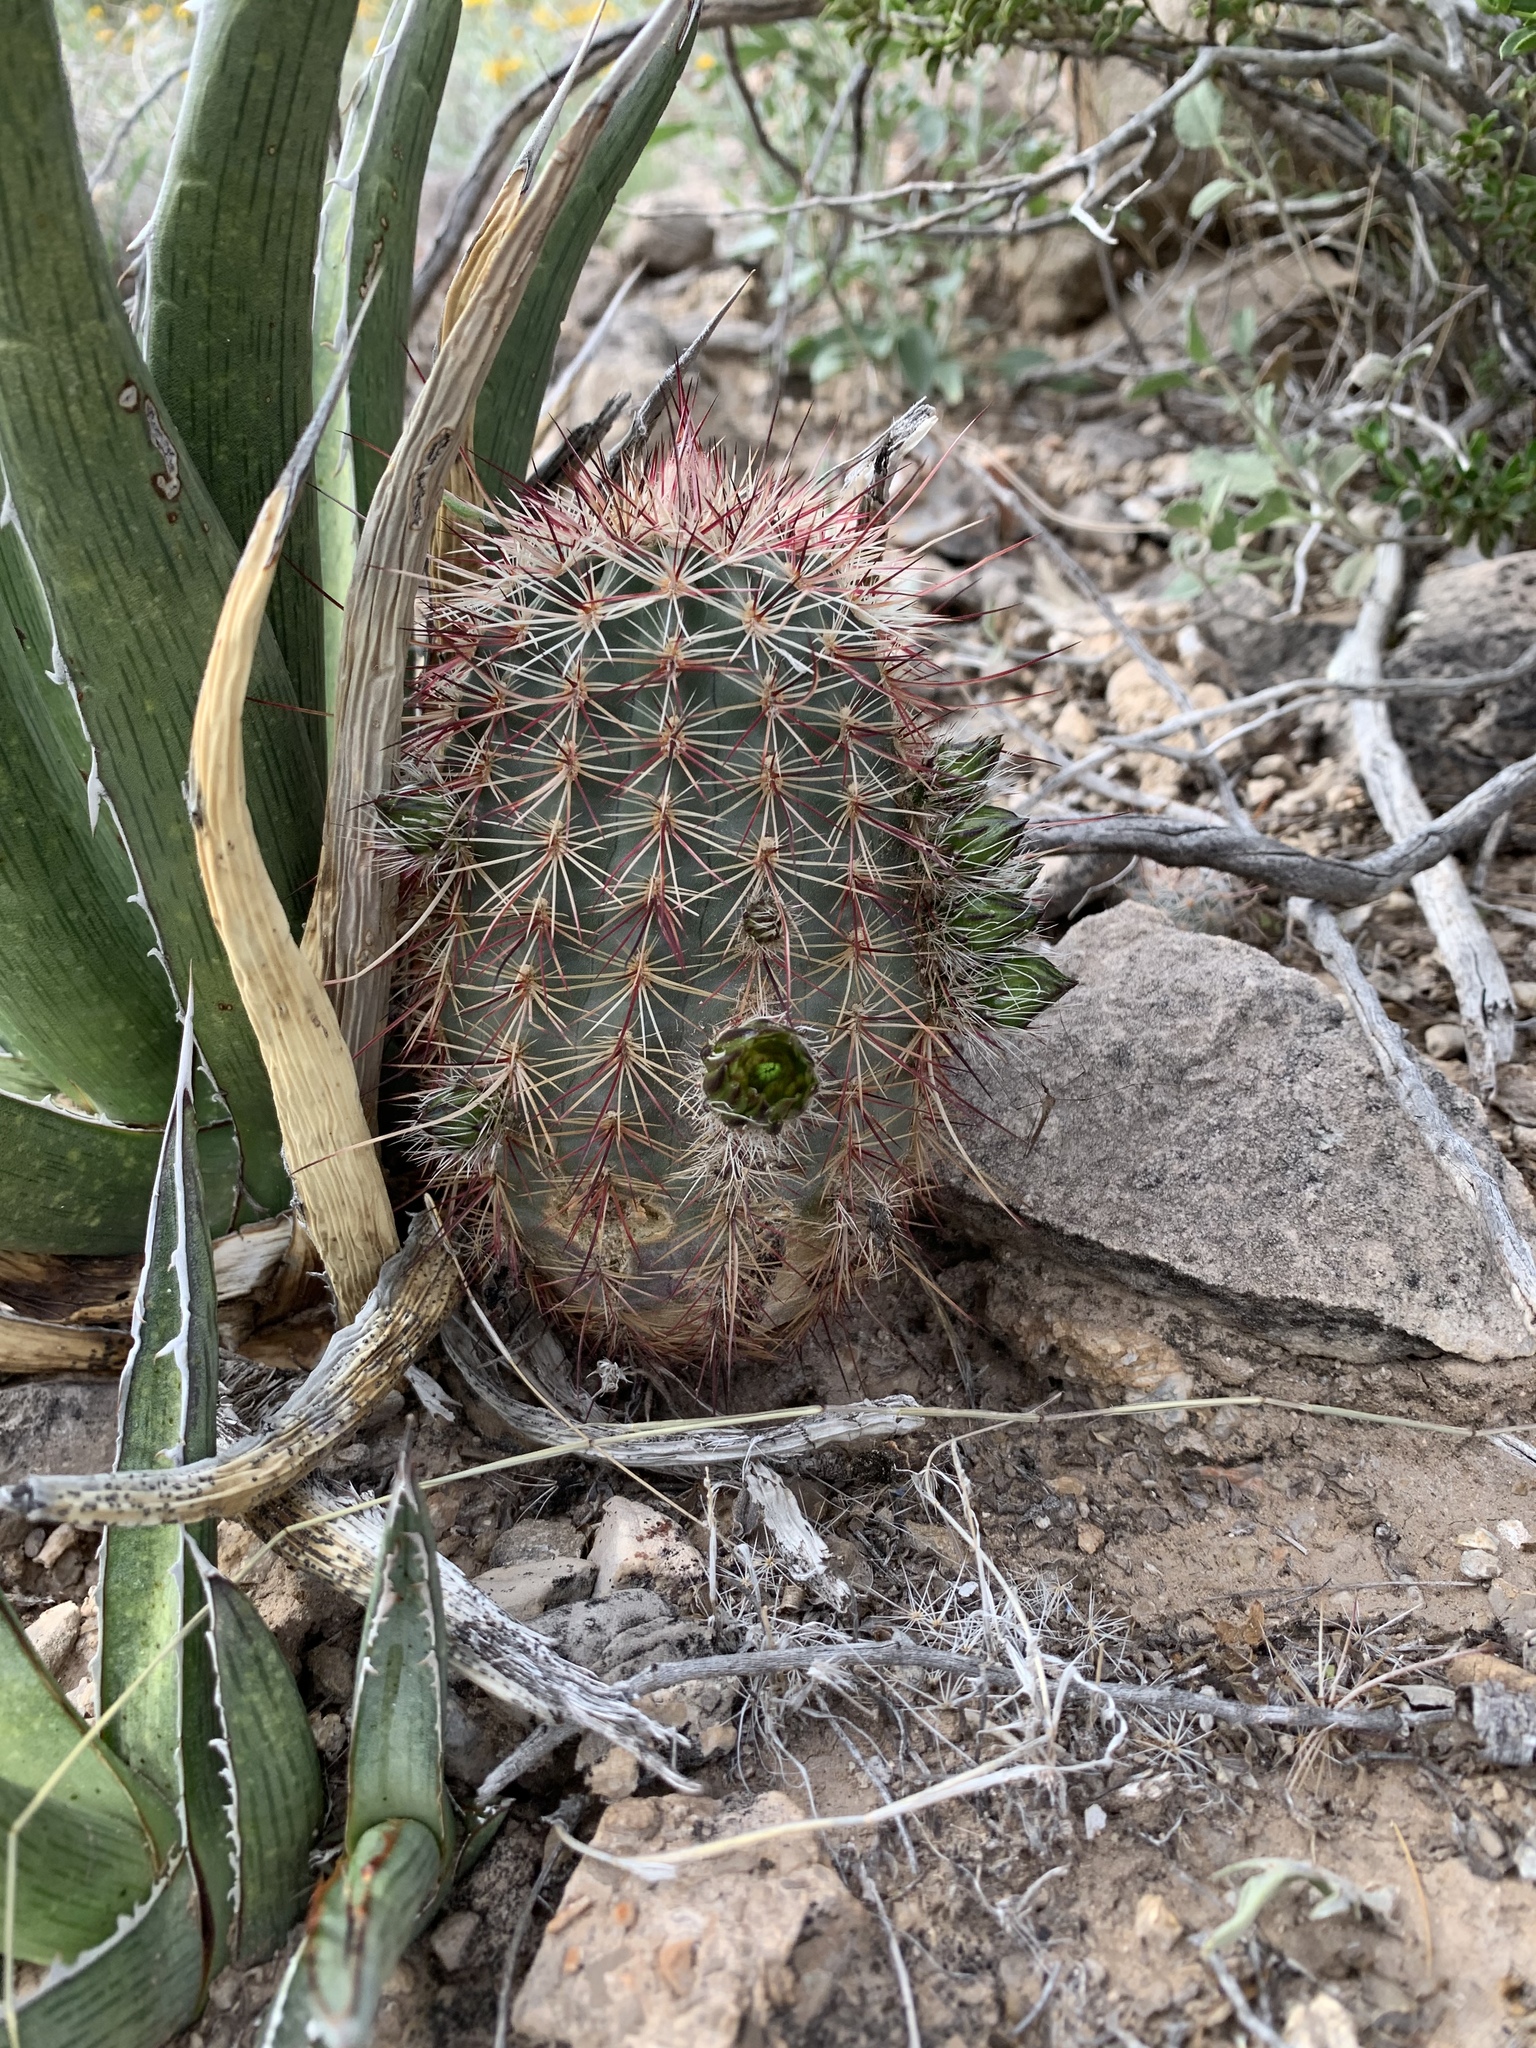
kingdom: Plantae
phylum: Tracheophyta
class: Magnoliopsida
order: Caryophyllales
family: Cactaceae
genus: Echinocereus
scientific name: Echinocereus viridiflorus
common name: Nylon hedgehog cactus
